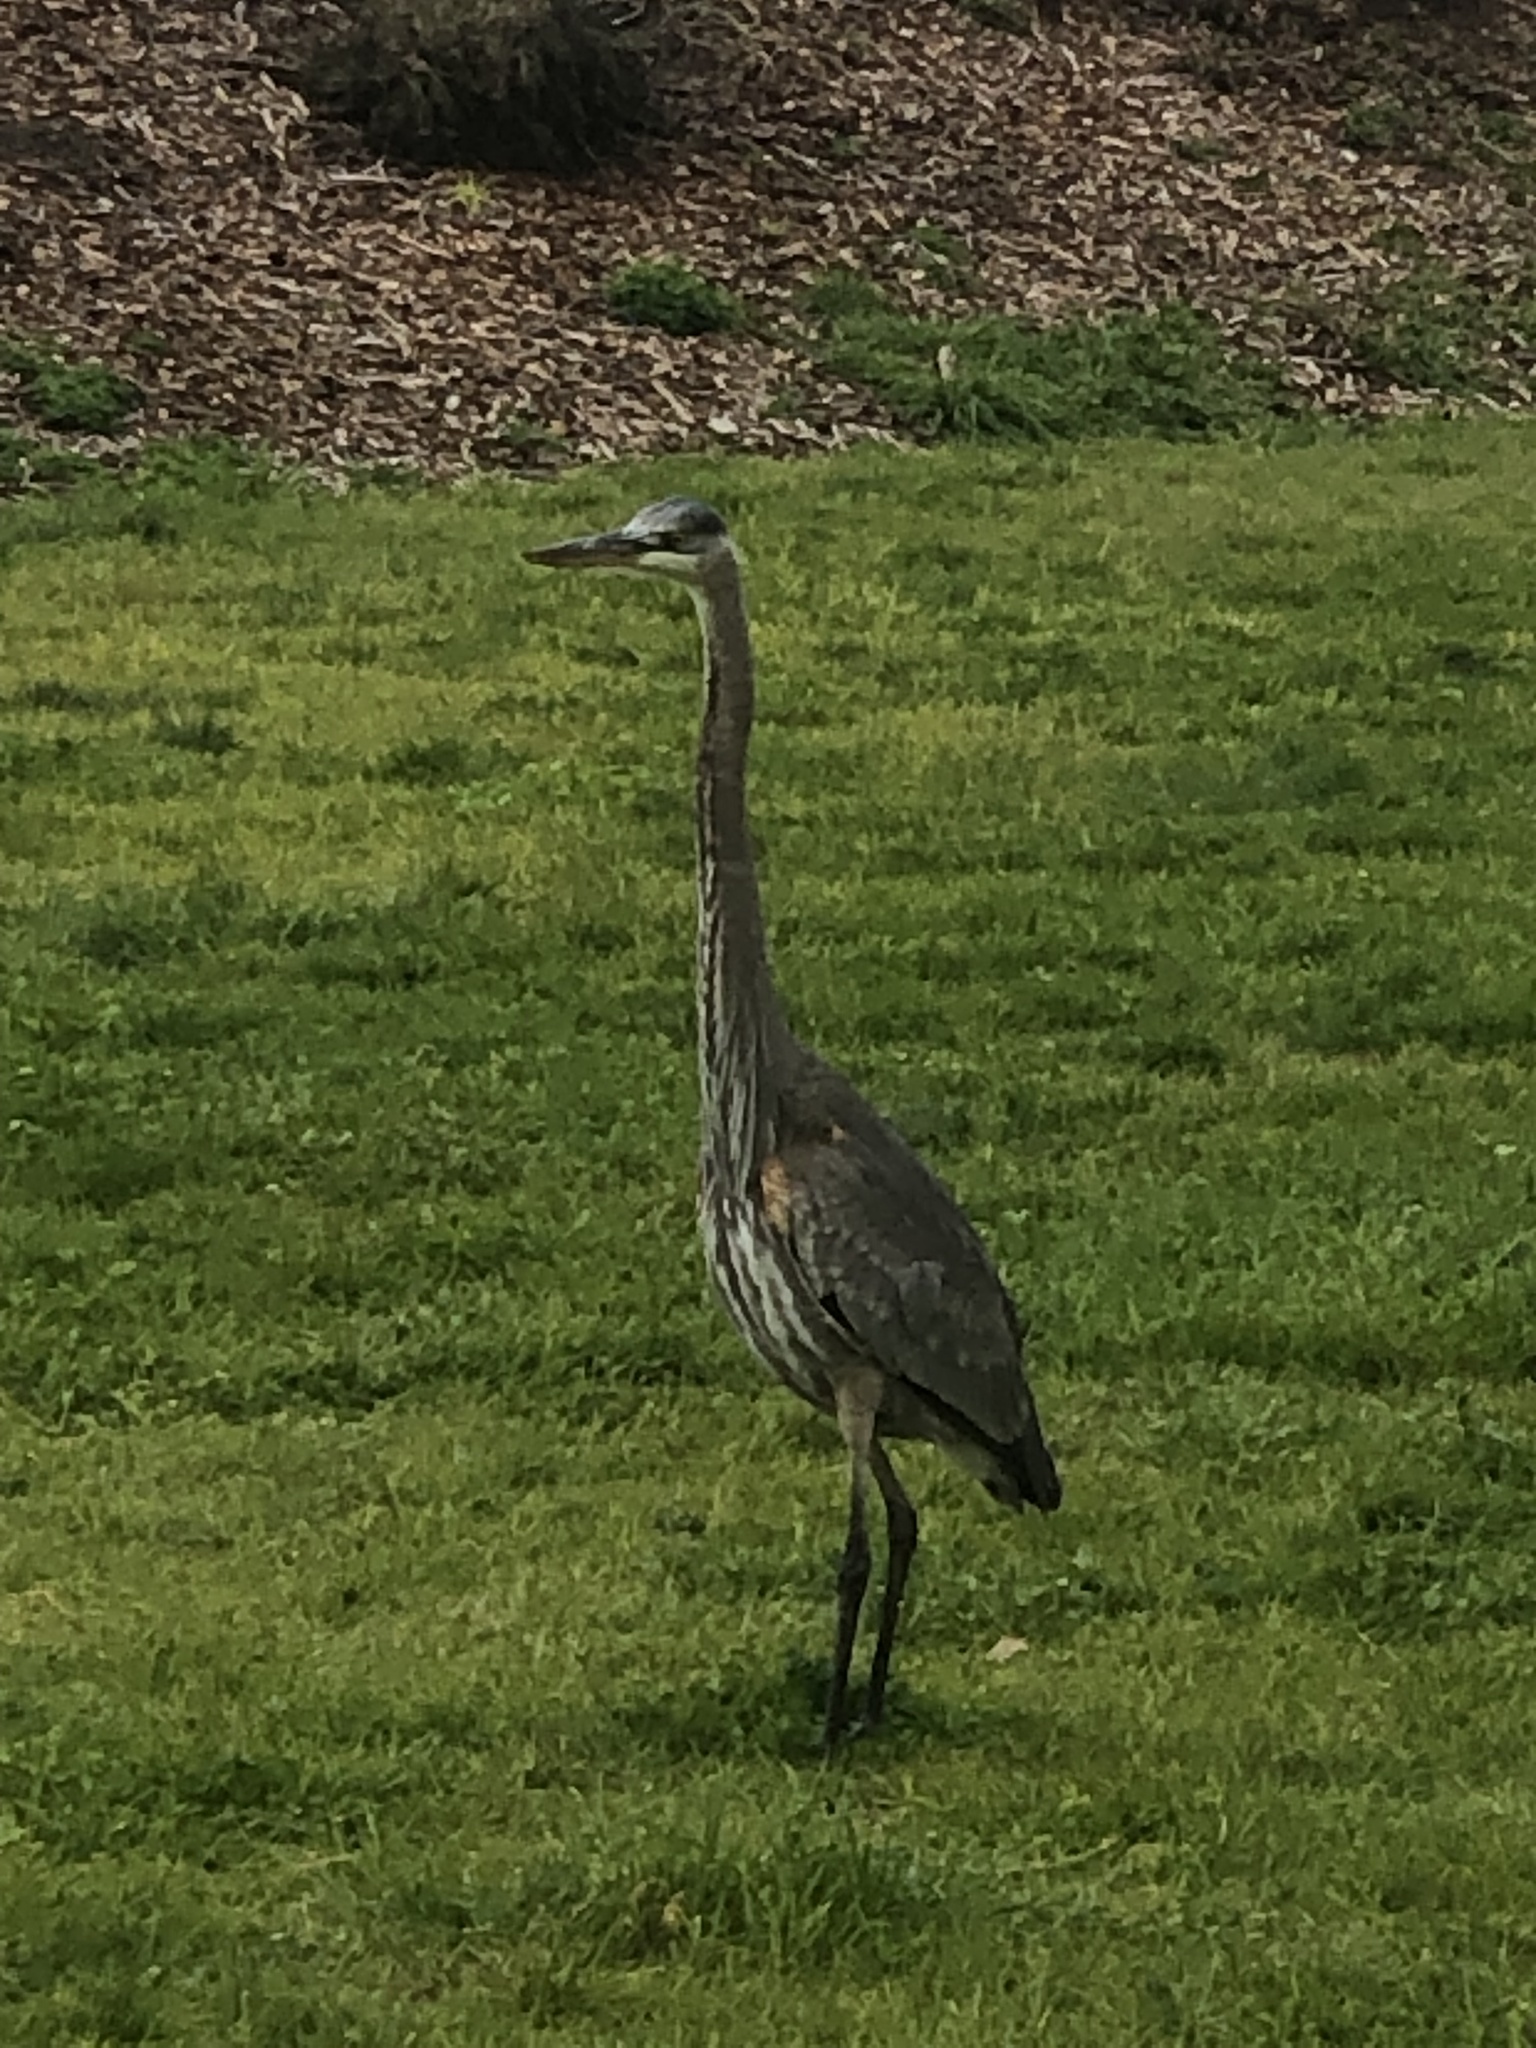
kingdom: Animalia
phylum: Chordata
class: Aves
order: Pelecaniformes
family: Ardeidae
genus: Ardea
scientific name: Ardea herodias
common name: Great blue heron
